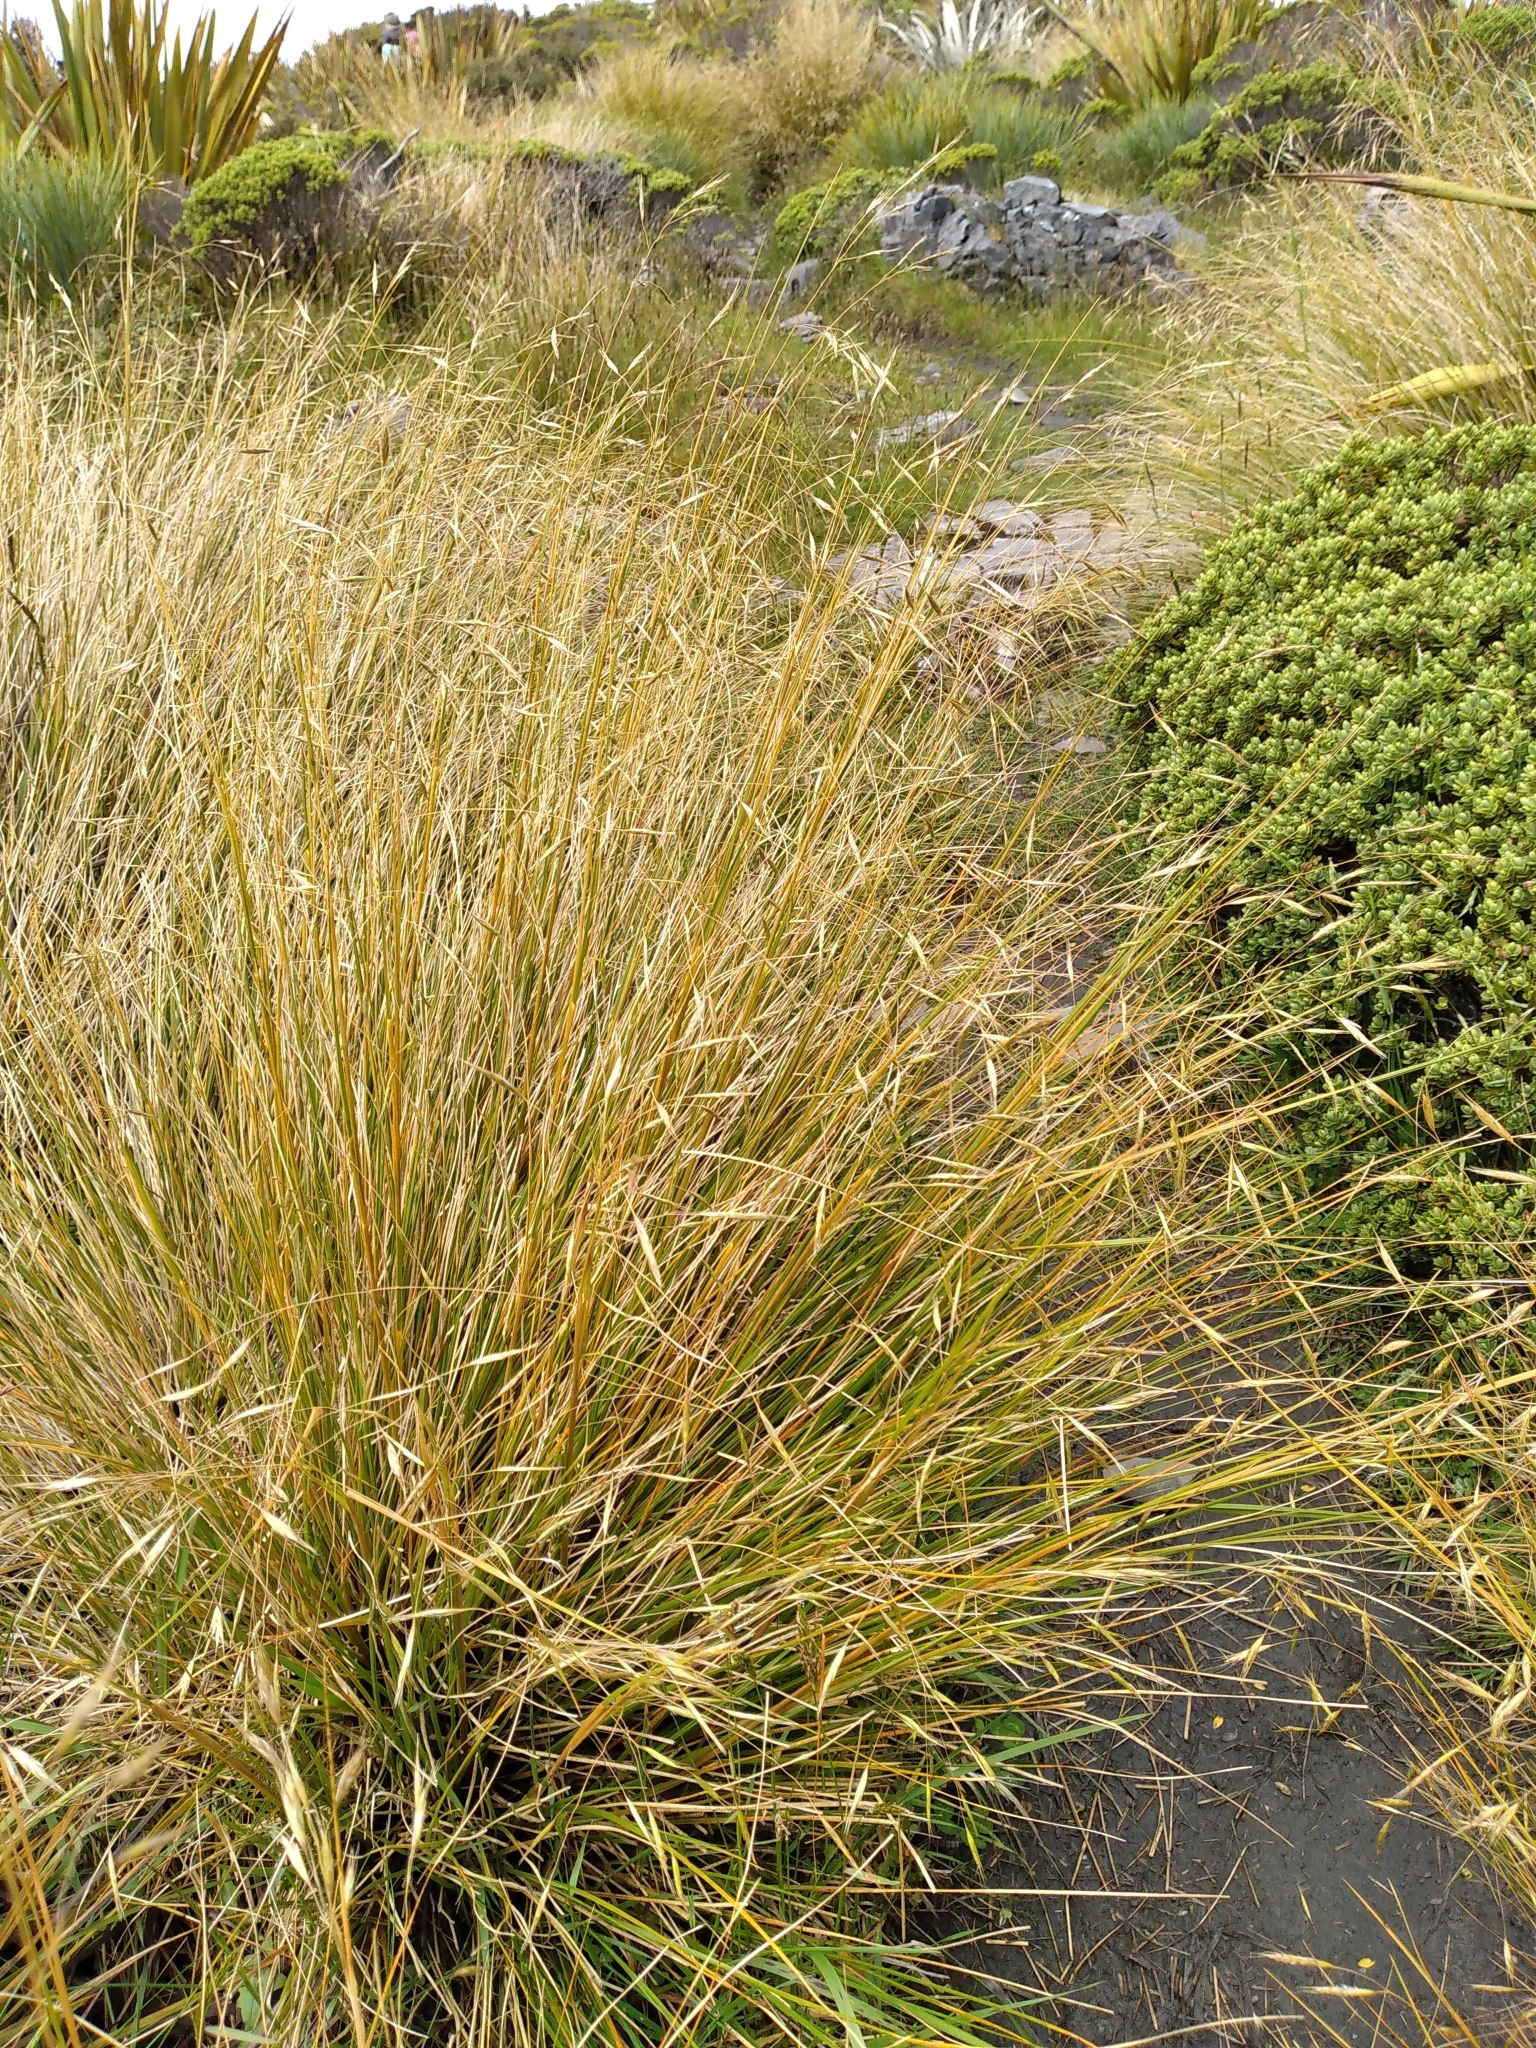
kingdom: Plantae
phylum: Tracheophyta
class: Liliopsida
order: Poales
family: Poaceae
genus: Chionochloa
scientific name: Chionochloa pallens
